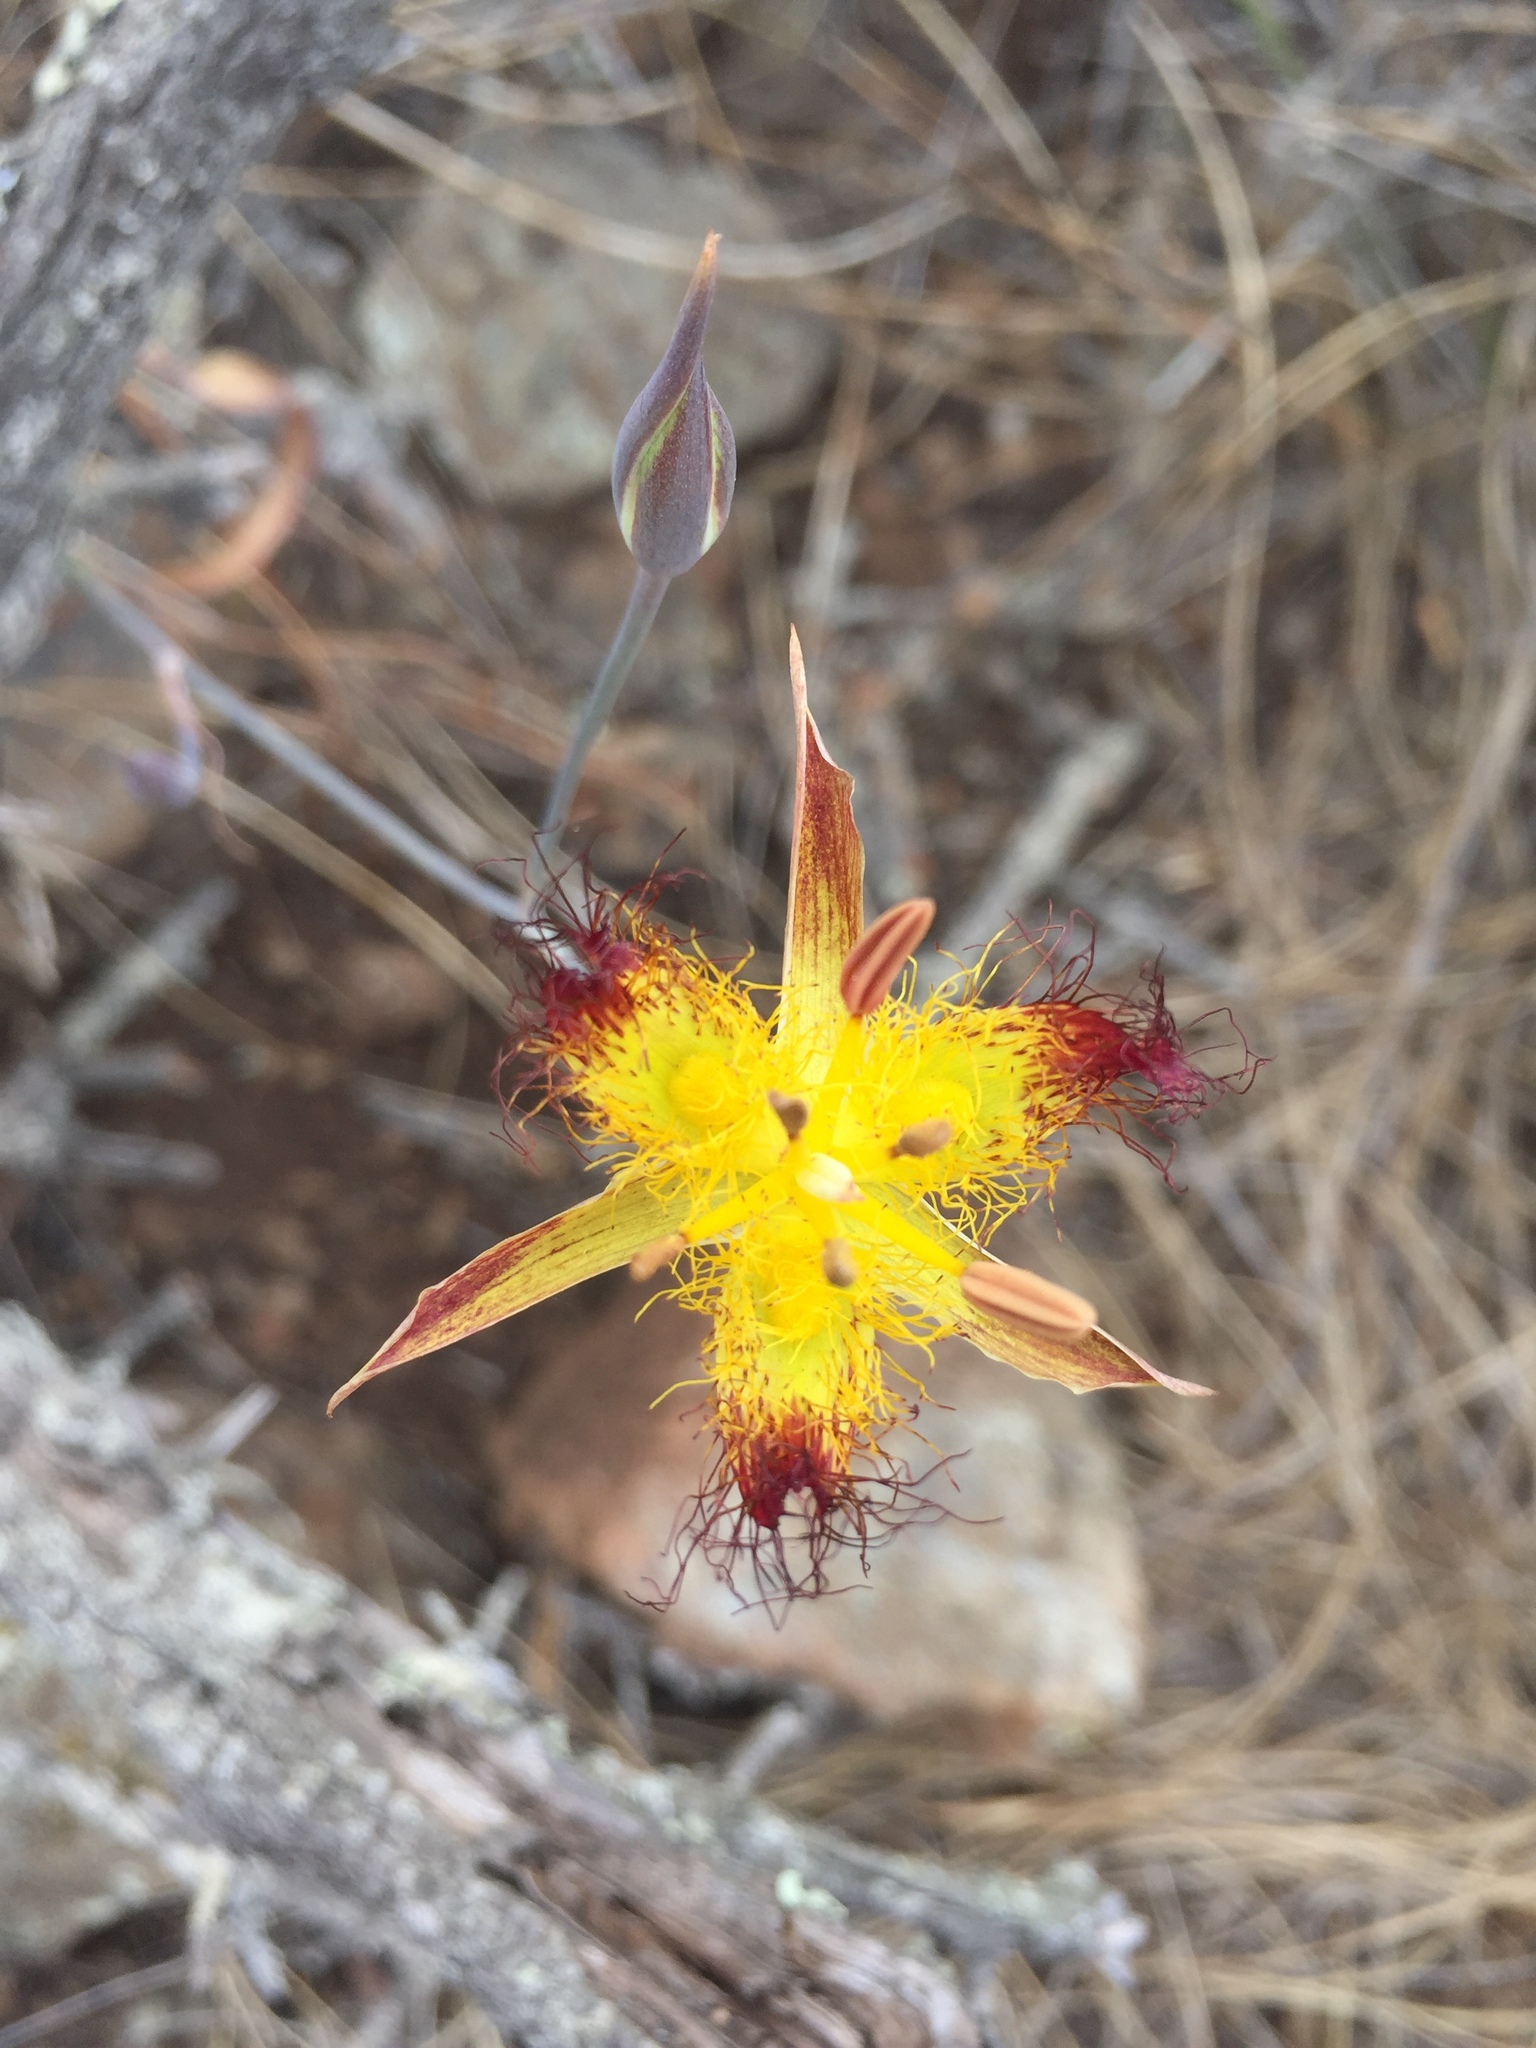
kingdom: Plantae
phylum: Tracheophyta
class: Liliopsida
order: Liliales
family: Liliaceae
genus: Calochortus
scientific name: Calochortus obispoensis
